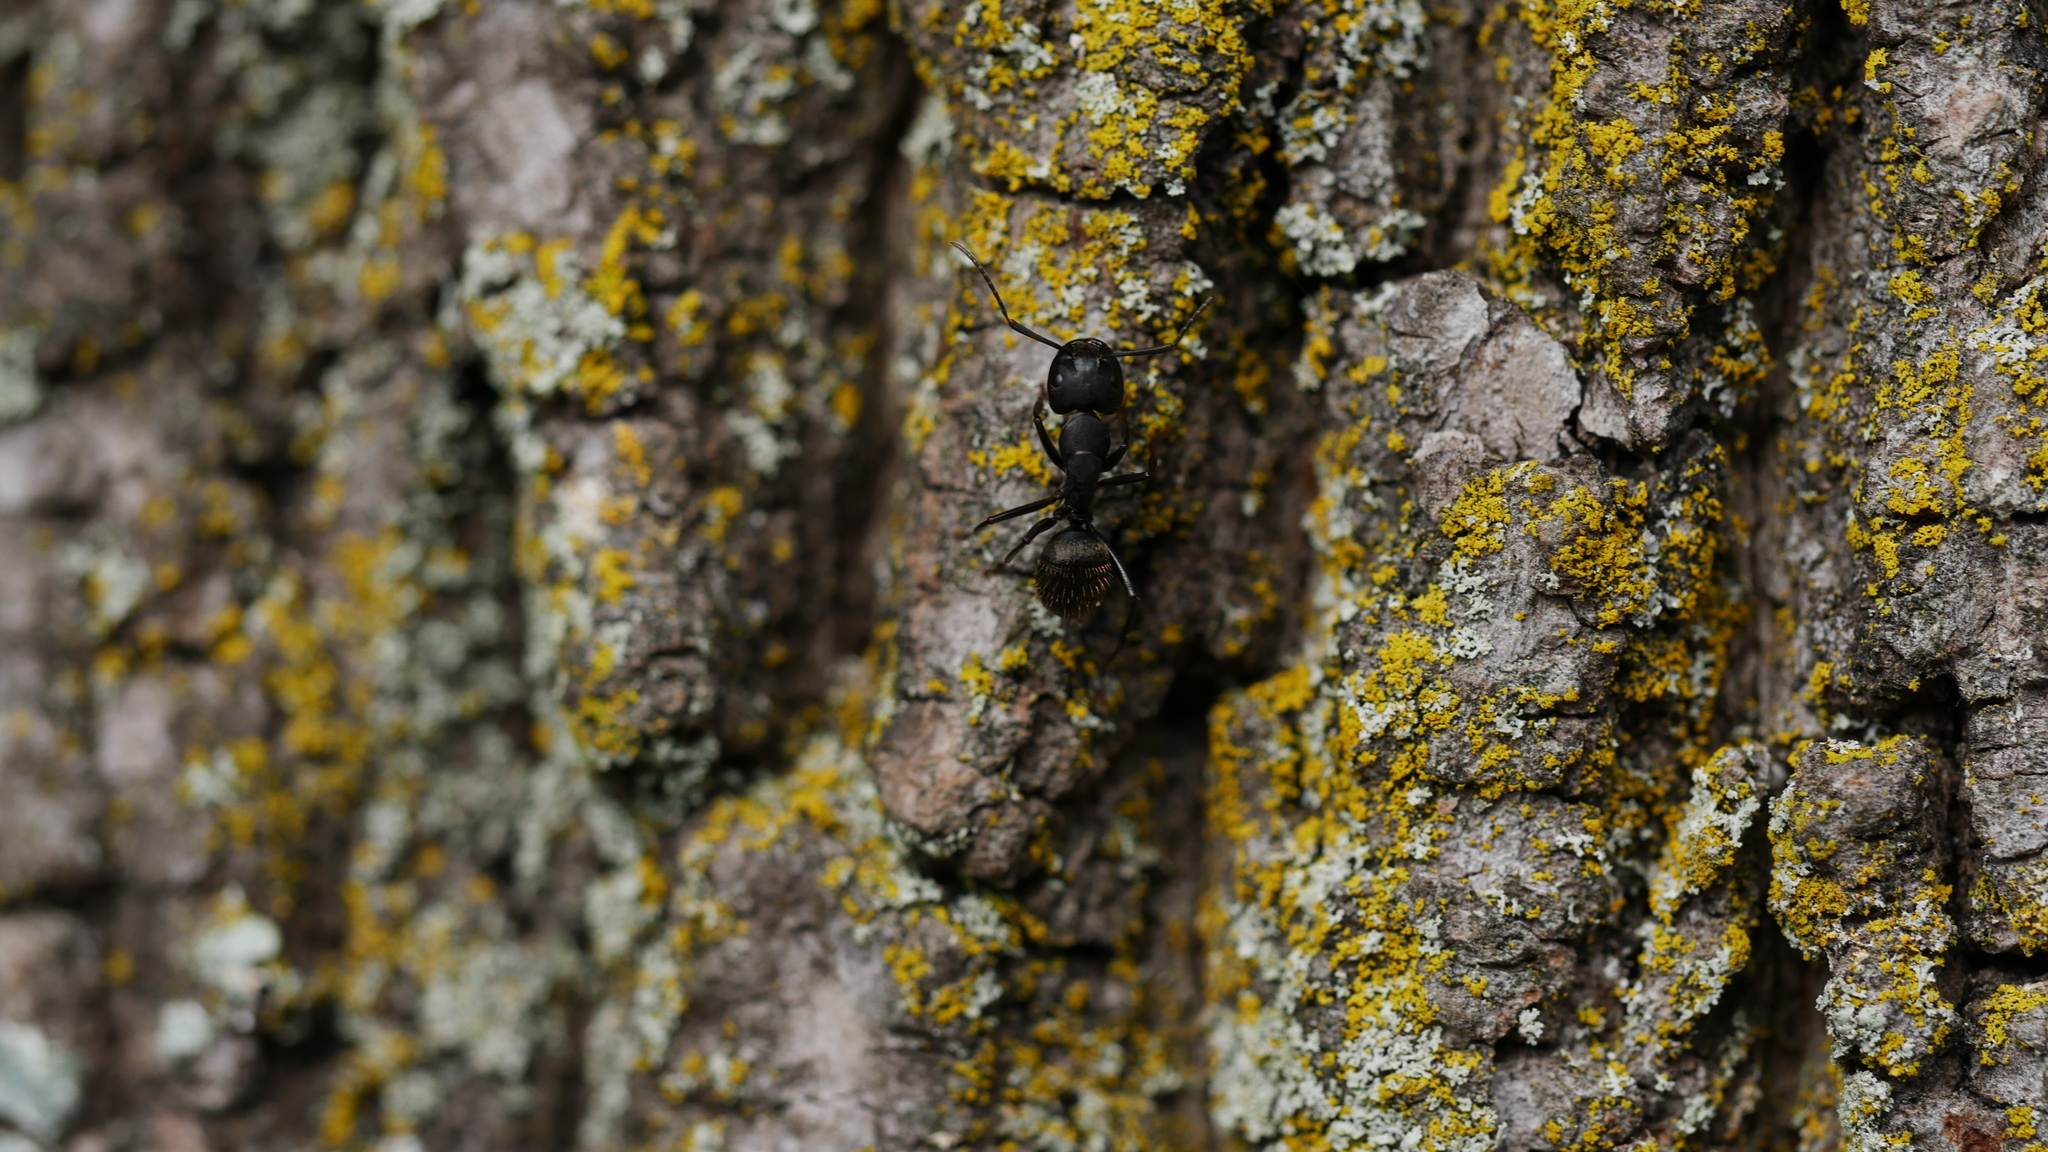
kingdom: Animalia
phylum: Arthropoda
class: Insecta
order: Hymenoptera
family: Formicidae
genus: Camponotus
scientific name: Camponotus pennsylvanicus
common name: Black carpenter ant
